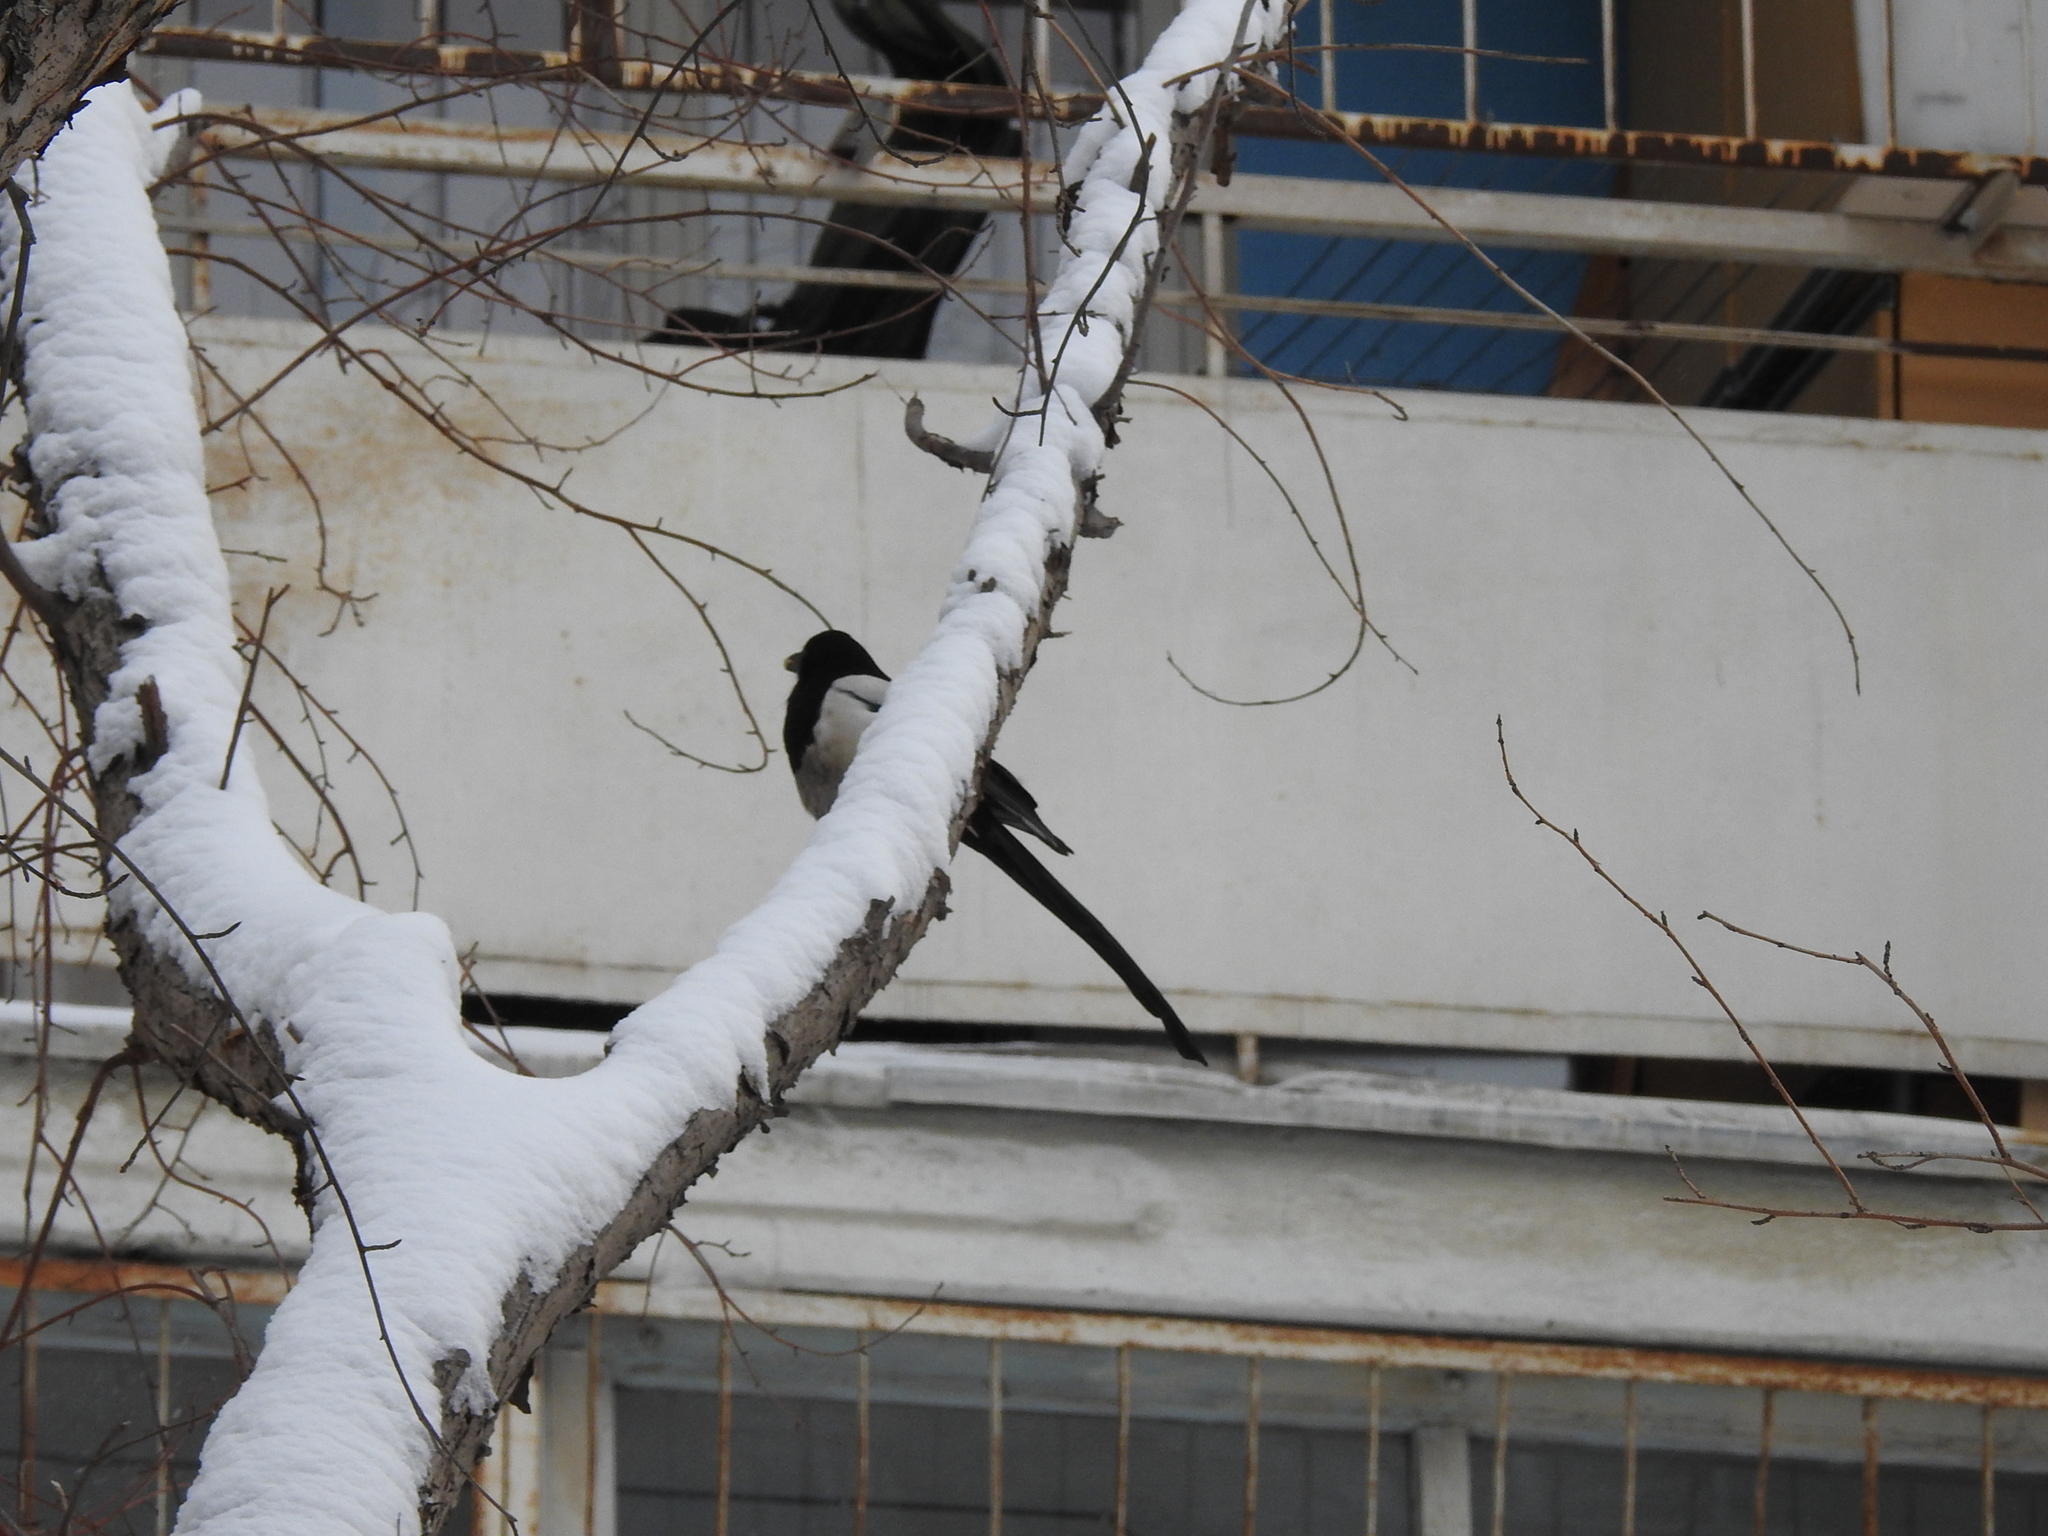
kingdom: Animalia
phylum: Chordata
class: Aves
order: Passeriformes
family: Corvidae
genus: Pica
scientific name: Pica pica
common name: Eurasian magpie
